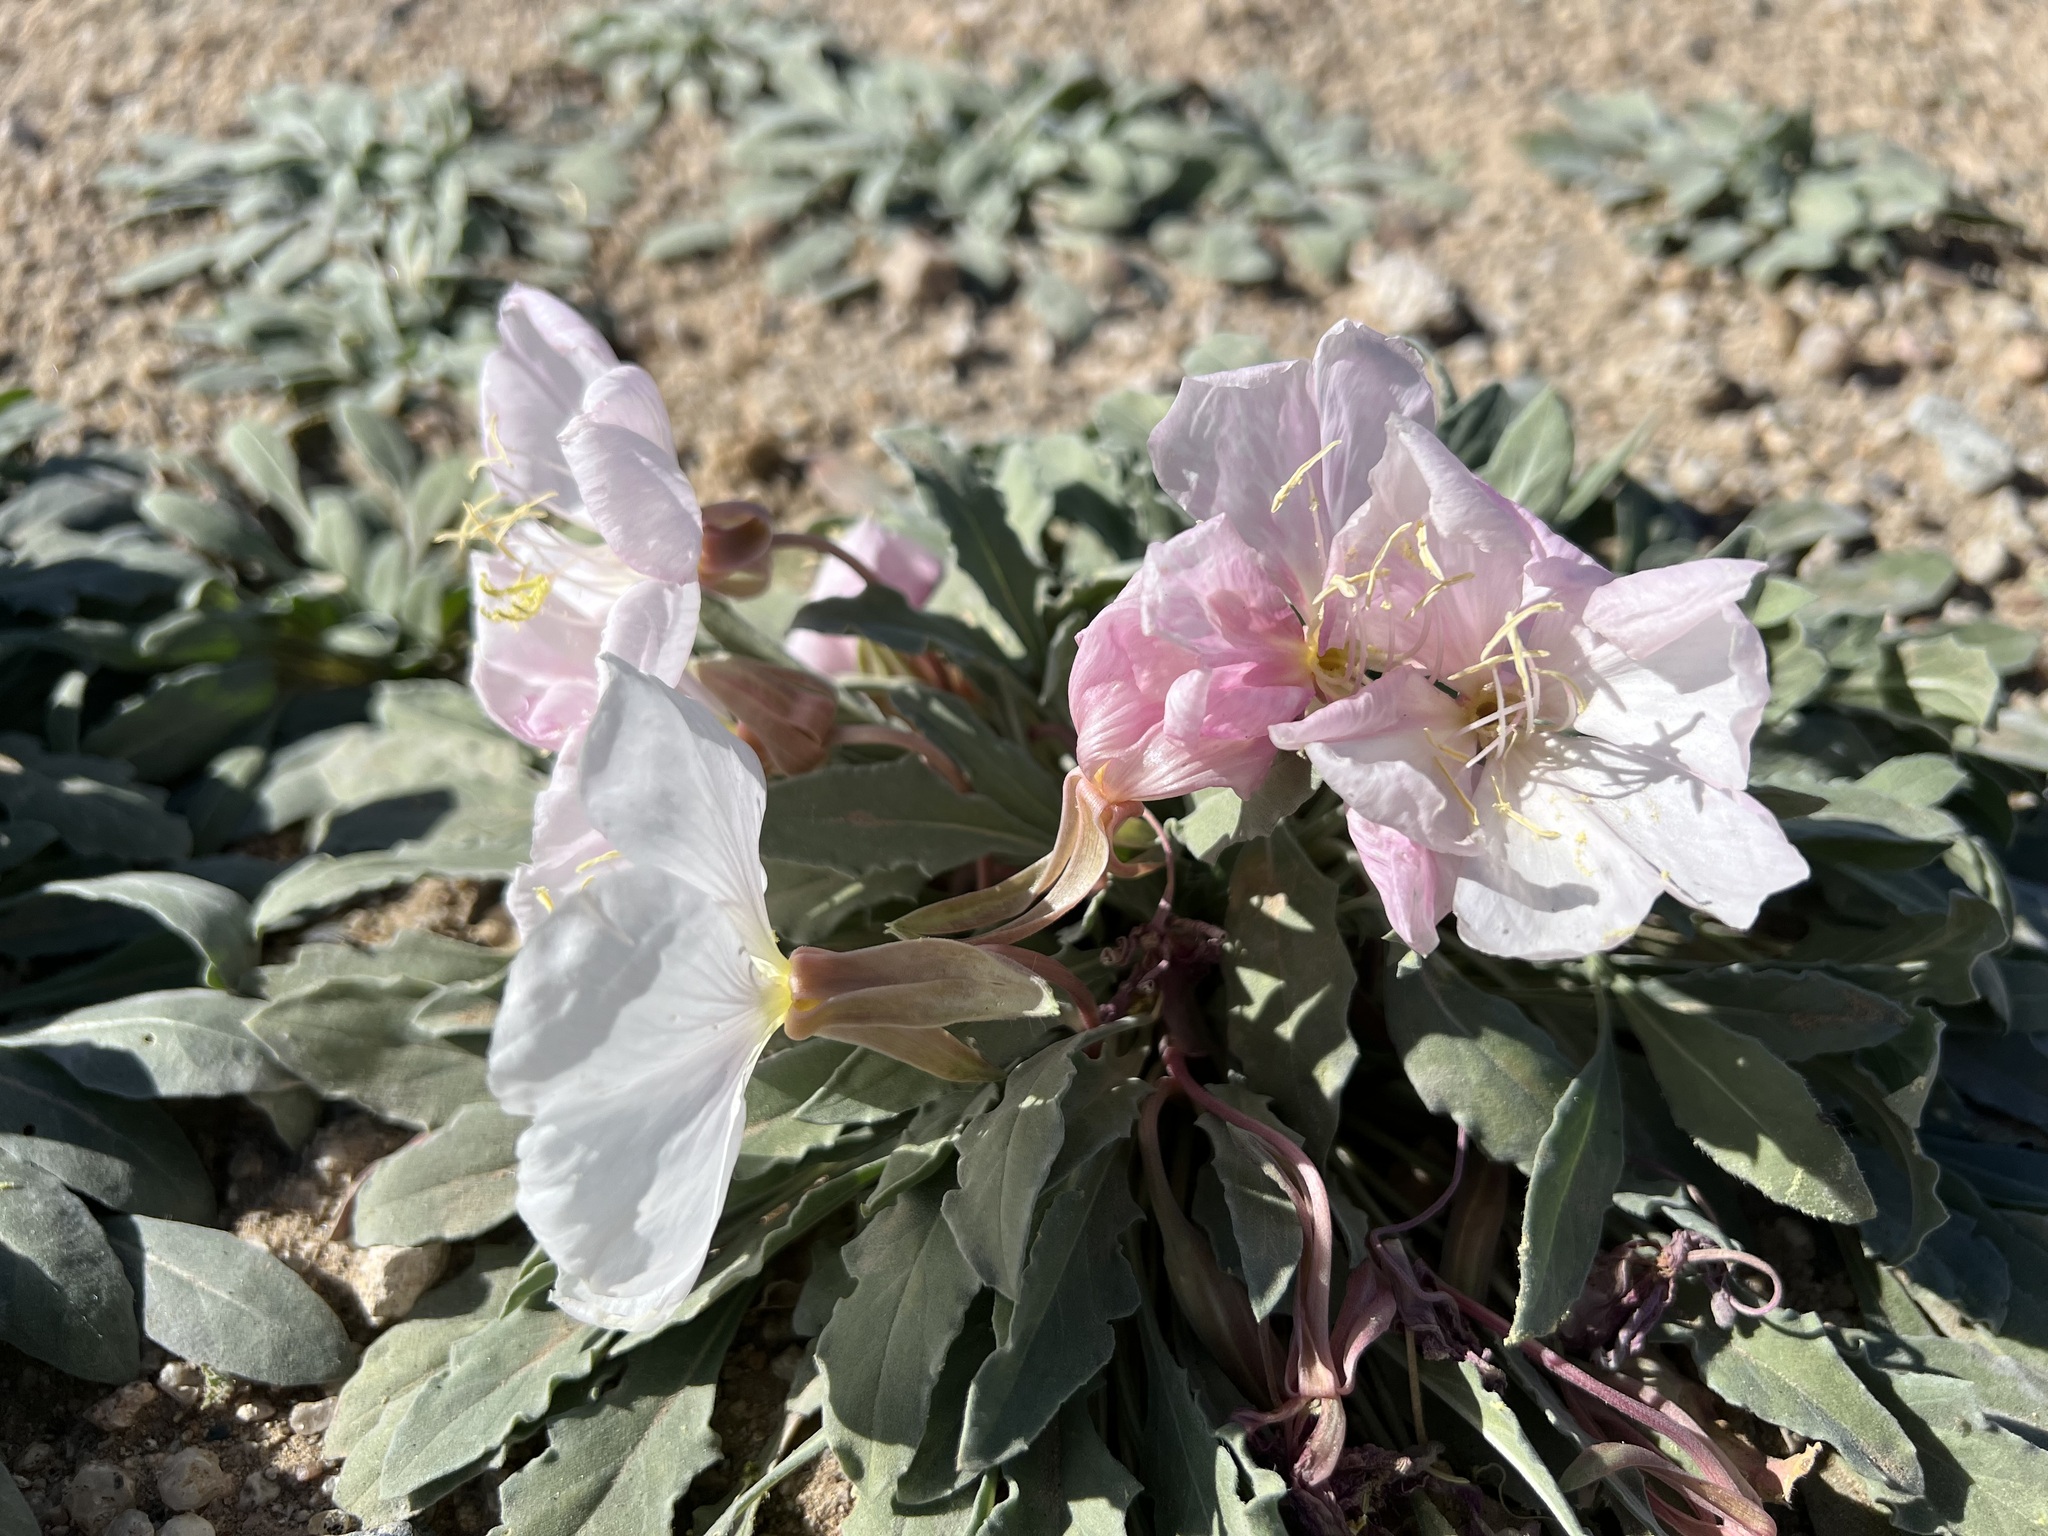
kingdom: Plantae
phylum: Tracheophyta
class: Magnoliopsida
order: Myrtales
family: Onagraceae
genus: Oenothera
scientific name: Oenothera deltoides
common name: Basket evening-primrose
